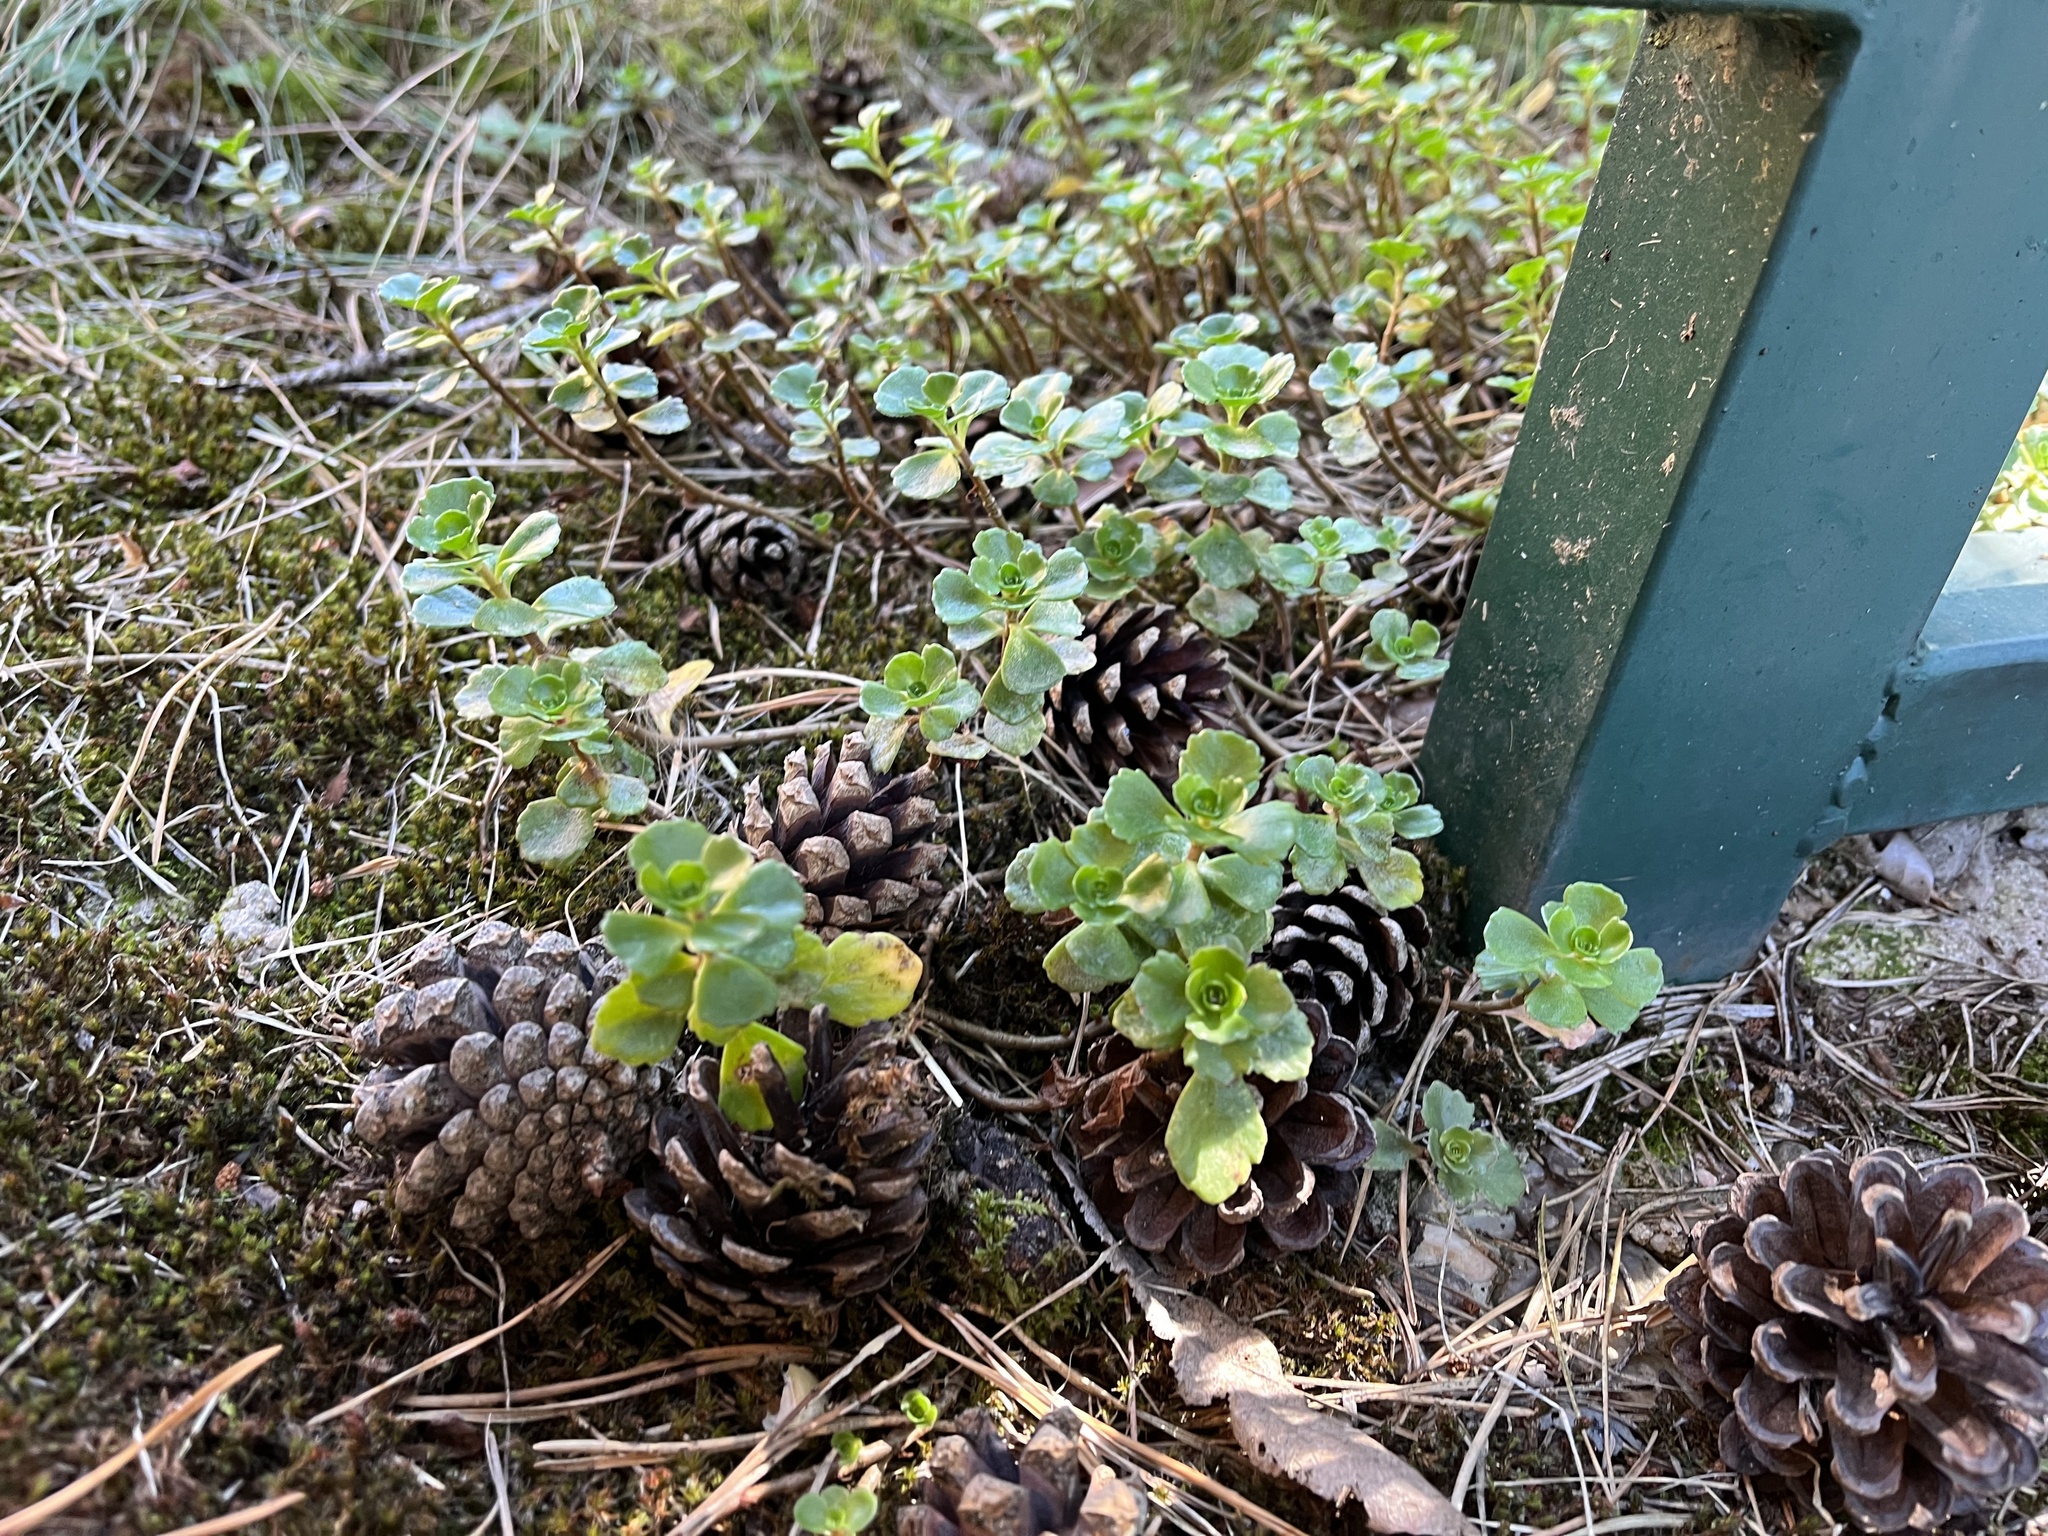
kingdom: Plantae
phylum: Tracheophyta
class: Magnoliopsida
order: Saxifragales
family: Crassulaceae
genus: Phedimus
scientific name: Phedimus spurius
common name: Caucasian stonecrop
